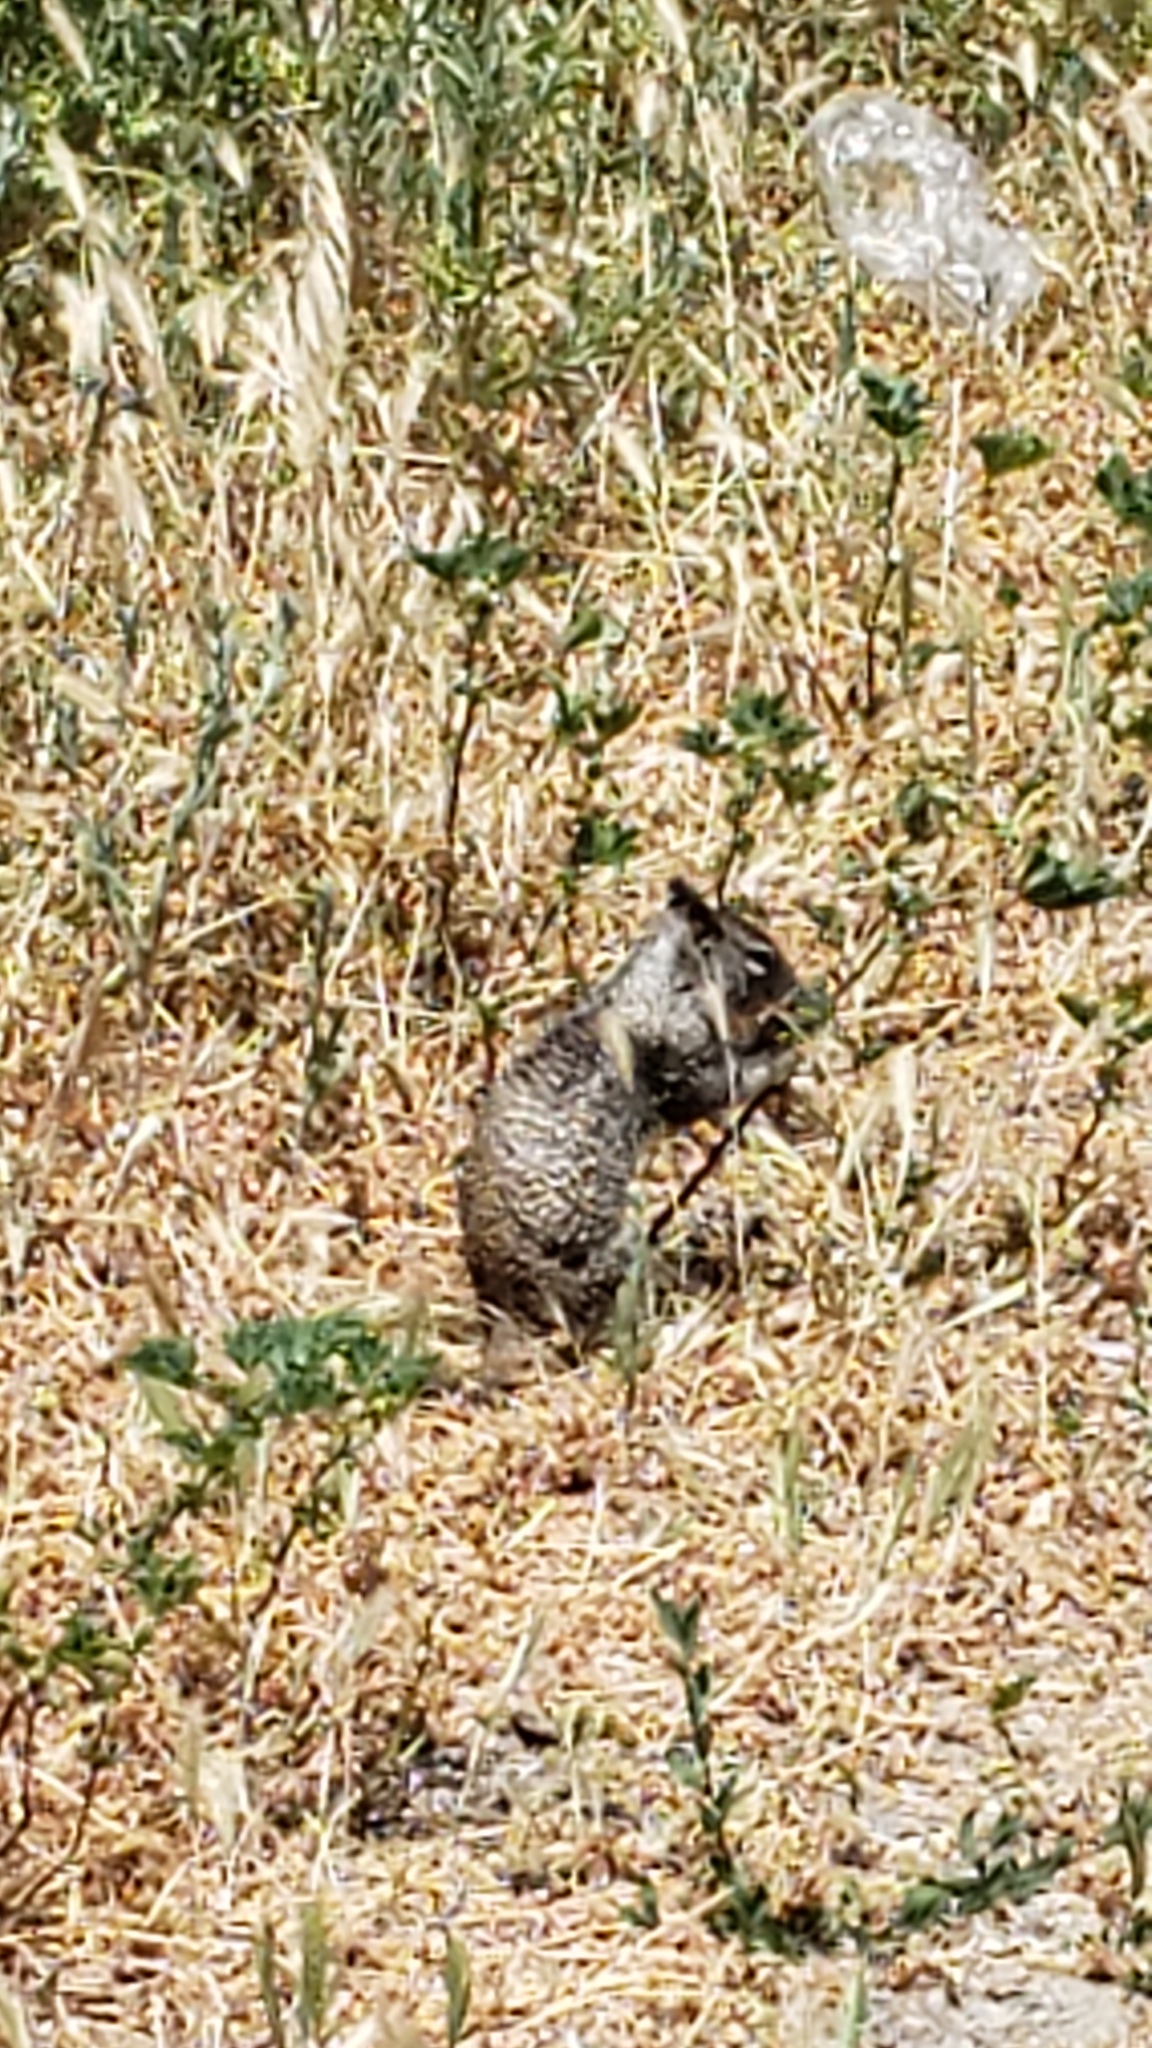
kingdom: Animalia
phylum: Chordata
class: Mammalia
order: Rodentia
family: Sciuridae
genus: Otospermophilus
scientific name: Otospermophilus beecheyi
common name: California ground squirrel
